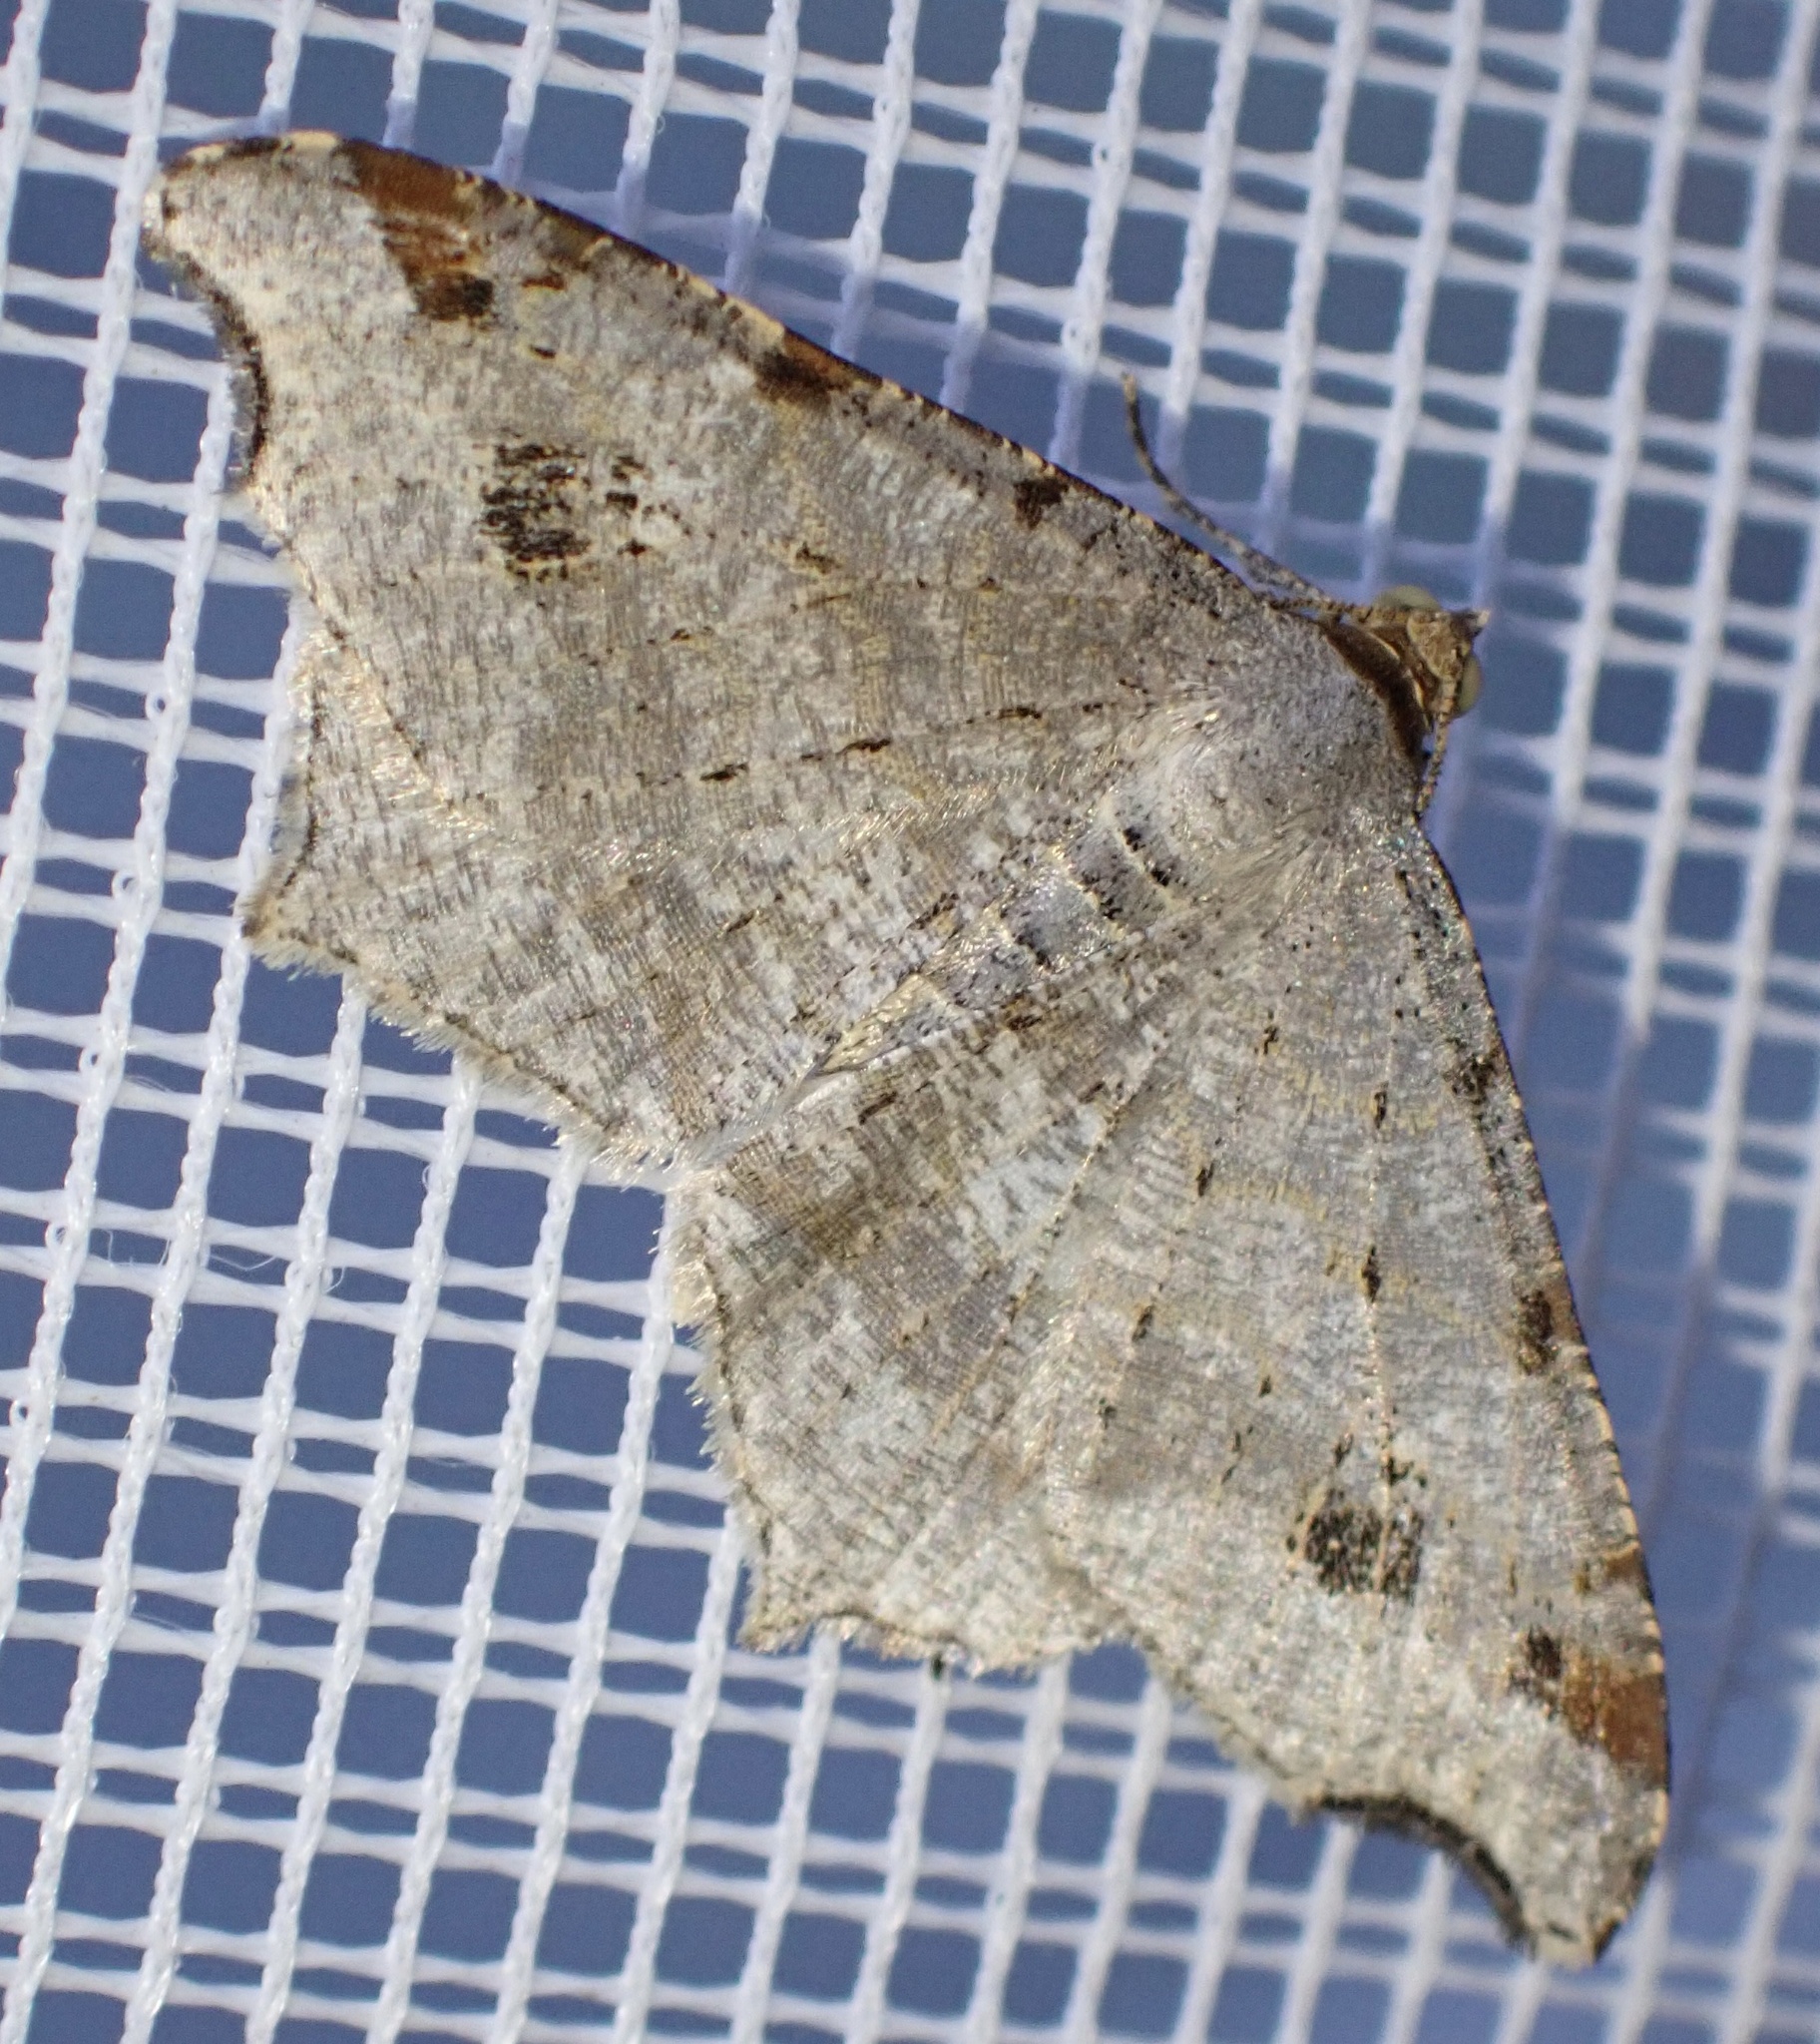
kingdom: Animalia
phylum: Arthropoda
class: Insecta
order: Lepidoptera
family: Geometridae
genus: Macaria
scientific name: Macaria alternata
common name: Sharp-angled peacock
